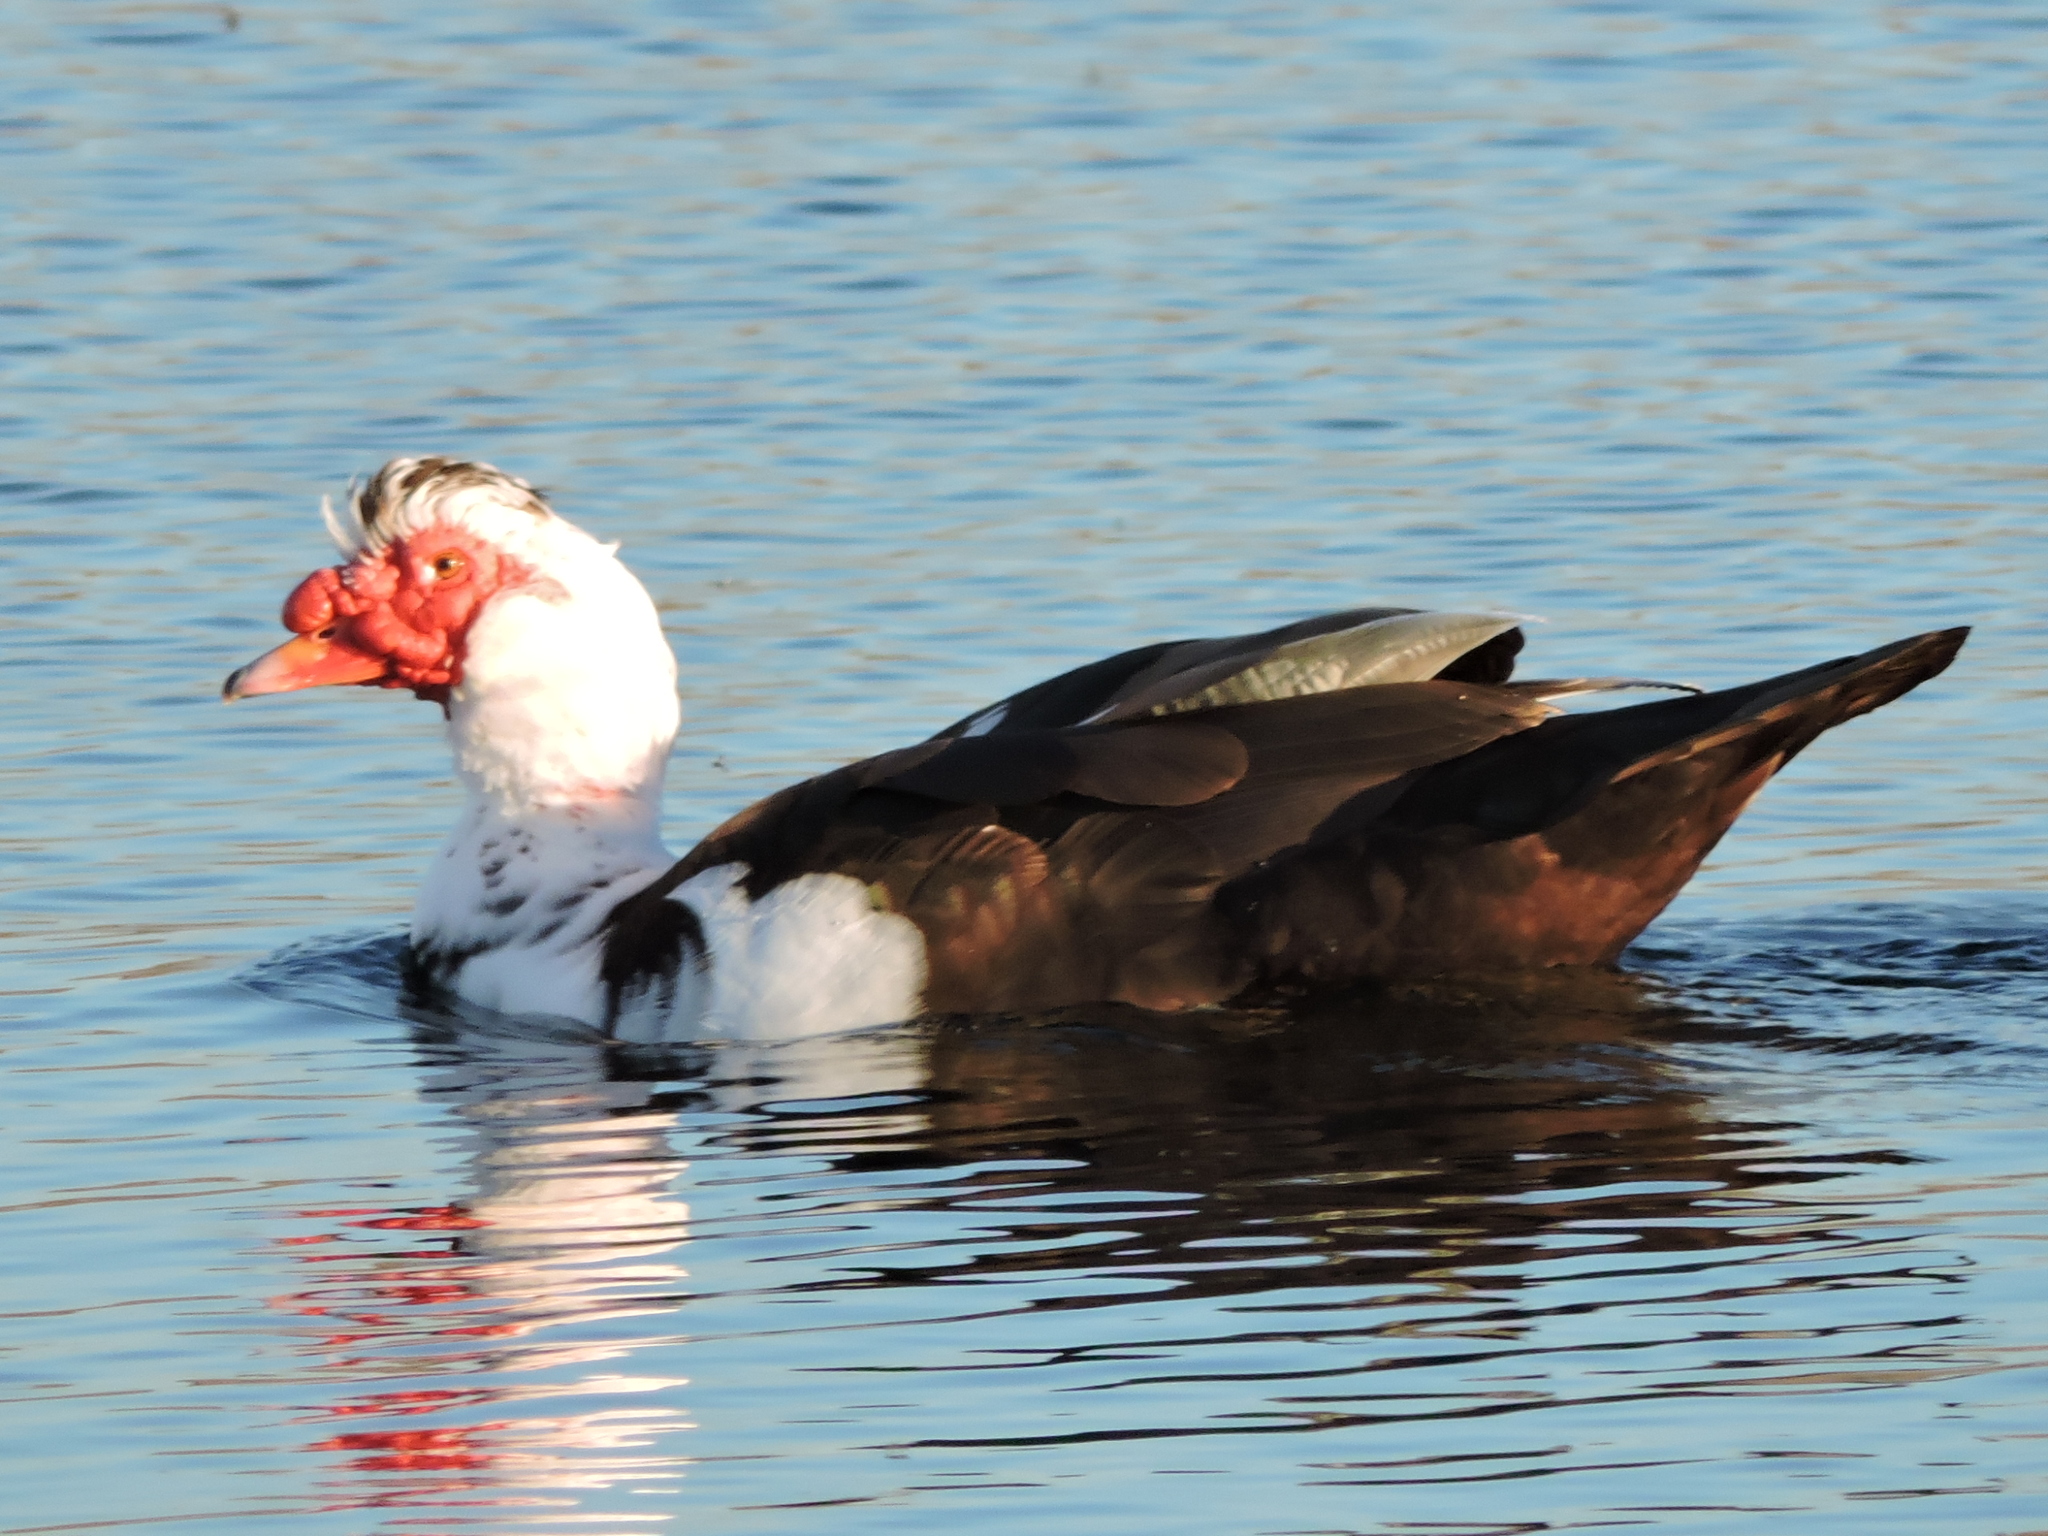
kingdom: Animalia
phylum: Chordata
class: Aves
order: Anseriformes
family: Anatidae
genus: Cairina
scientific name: Cairina moschata
